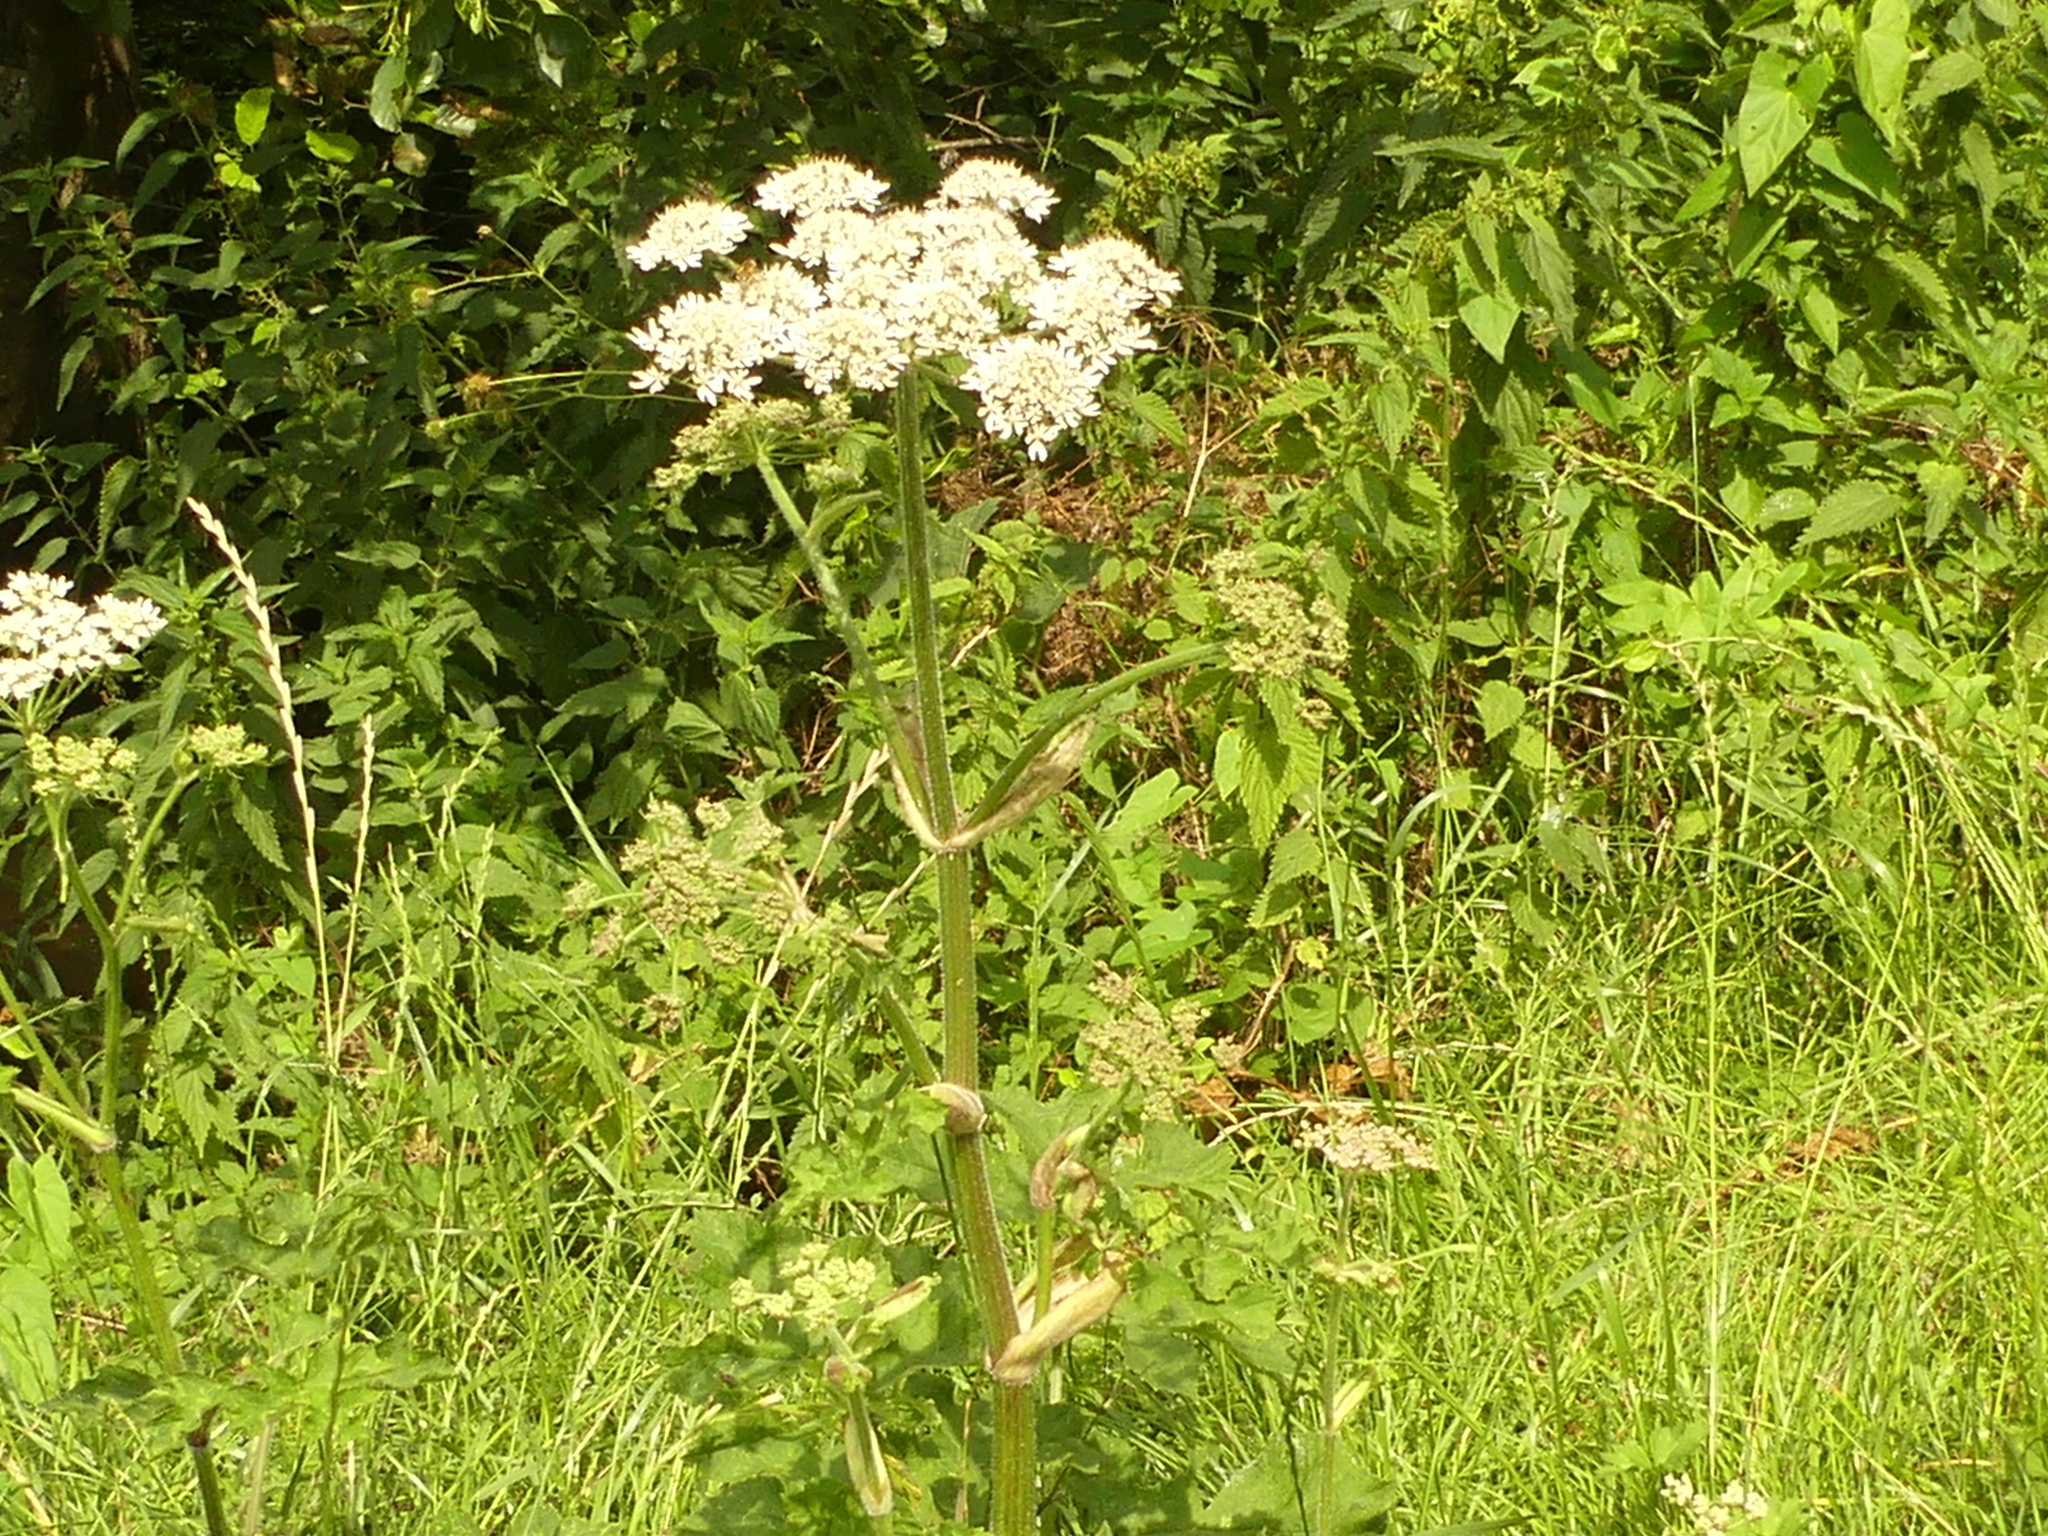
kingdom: Plantae
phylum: Tracheophyta
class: Magnoliopsida
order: Apiales
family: Apiaceae
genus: Heracleum
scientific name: Heracleum sphondylium
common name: Hogweed
